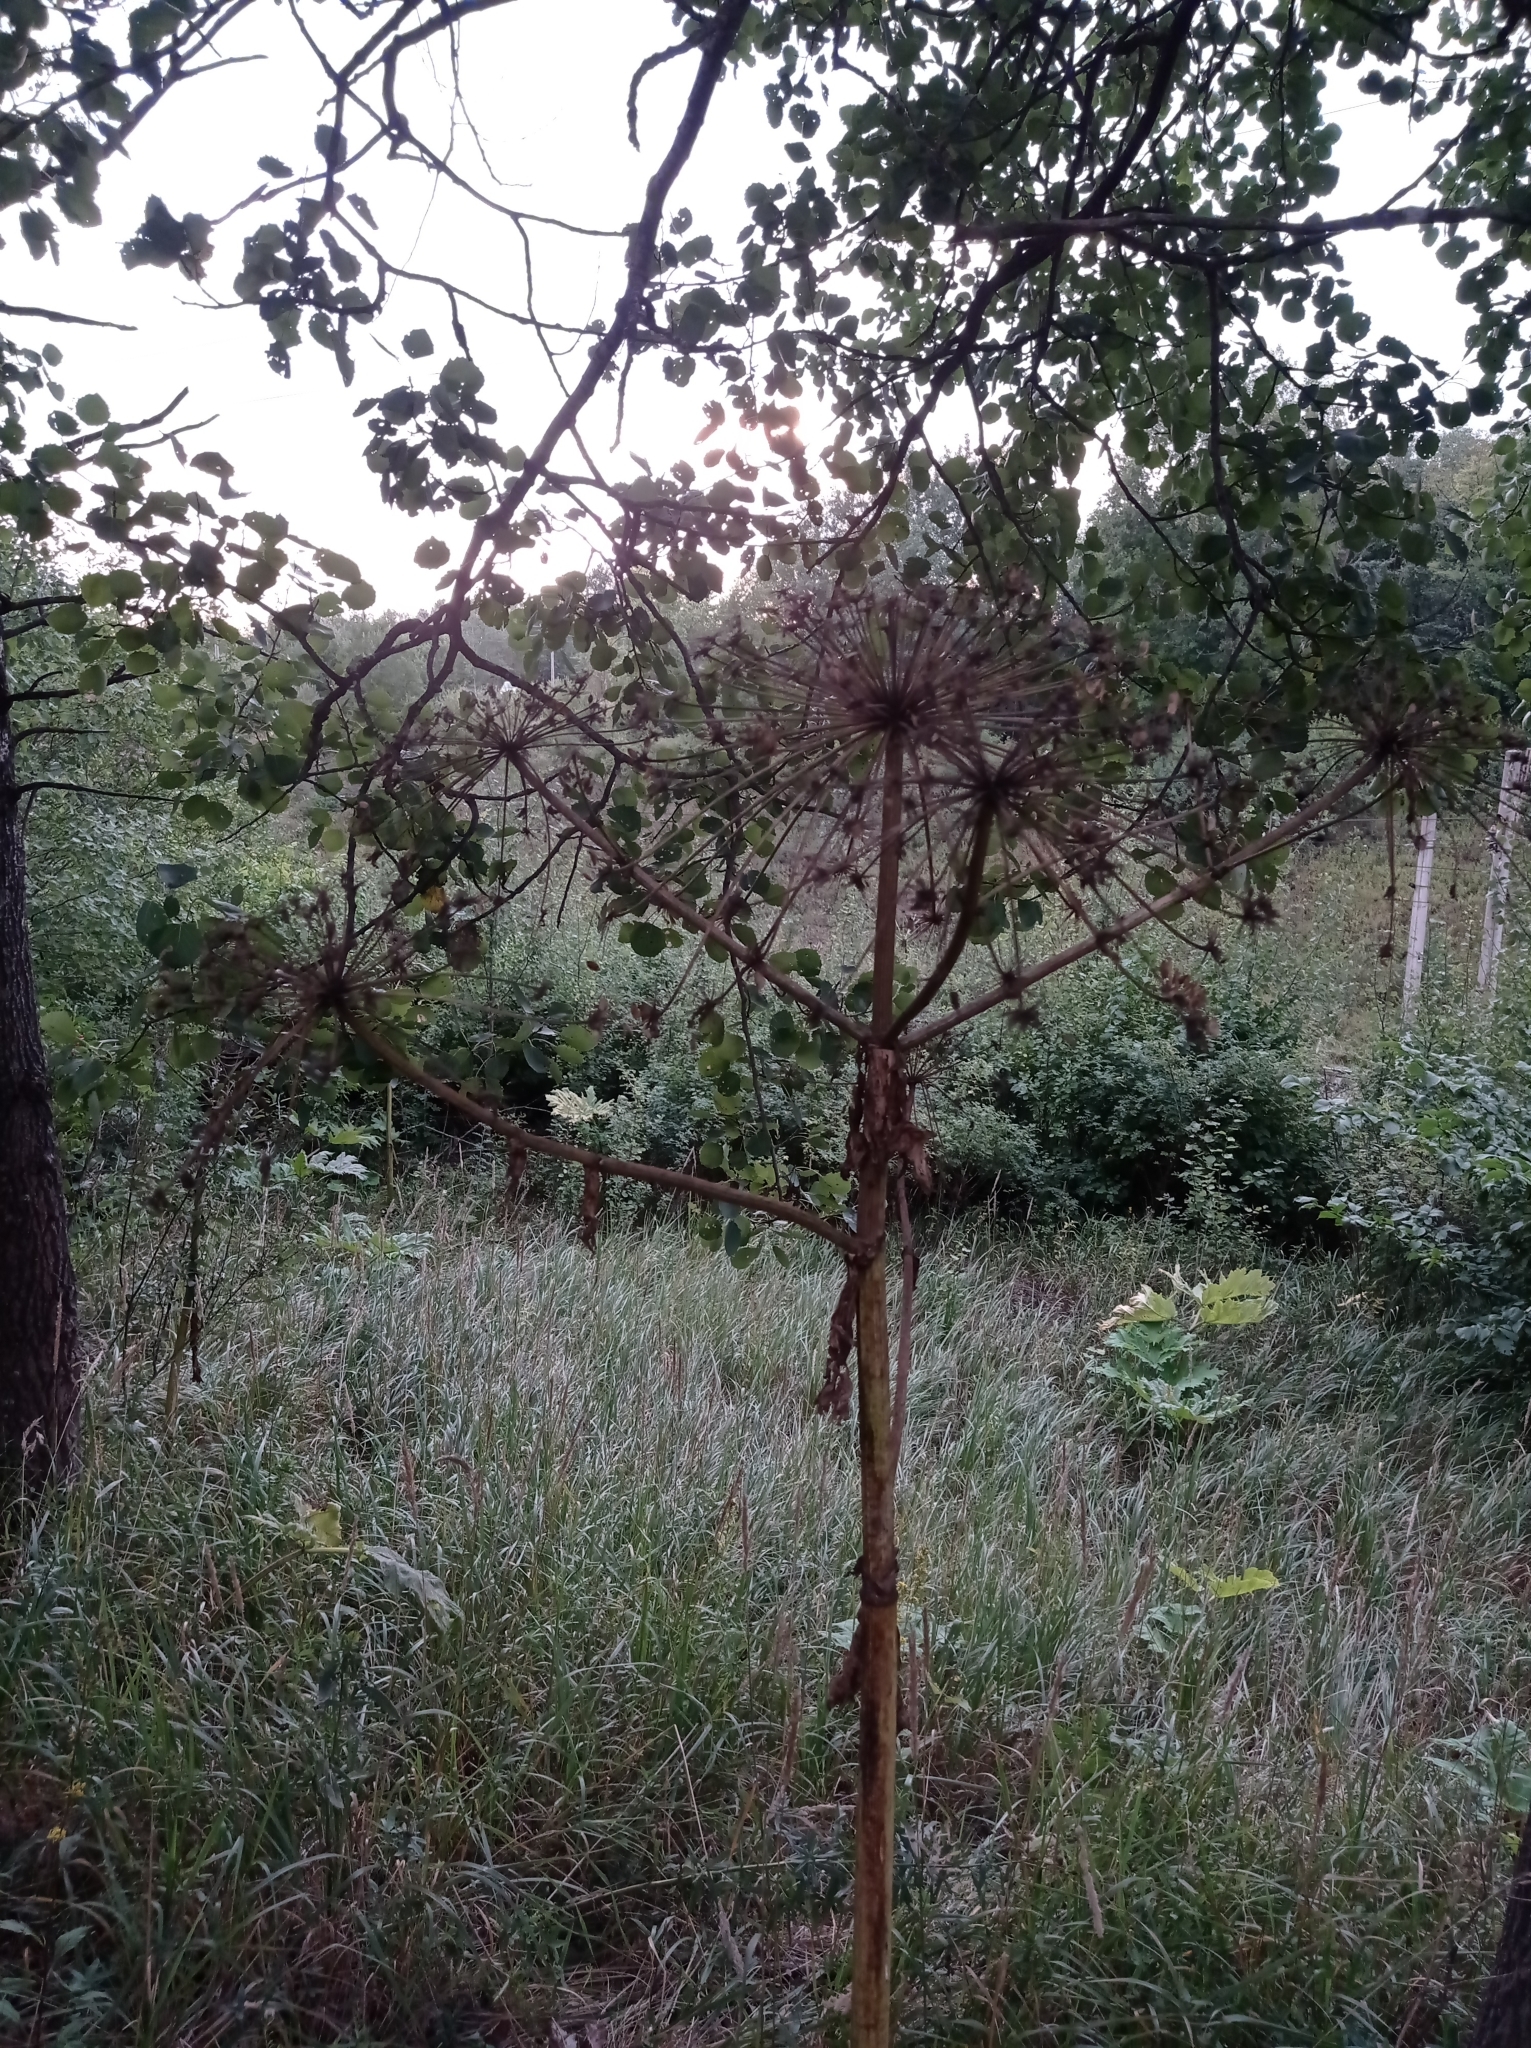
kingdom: Plantae
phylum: Tracheophyta
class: Magnoliopsida
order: Apiales
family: Apiaceae
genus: Heracleum
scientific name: Heracleum sosnowskyi
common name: Sosnowsky's hogweed
